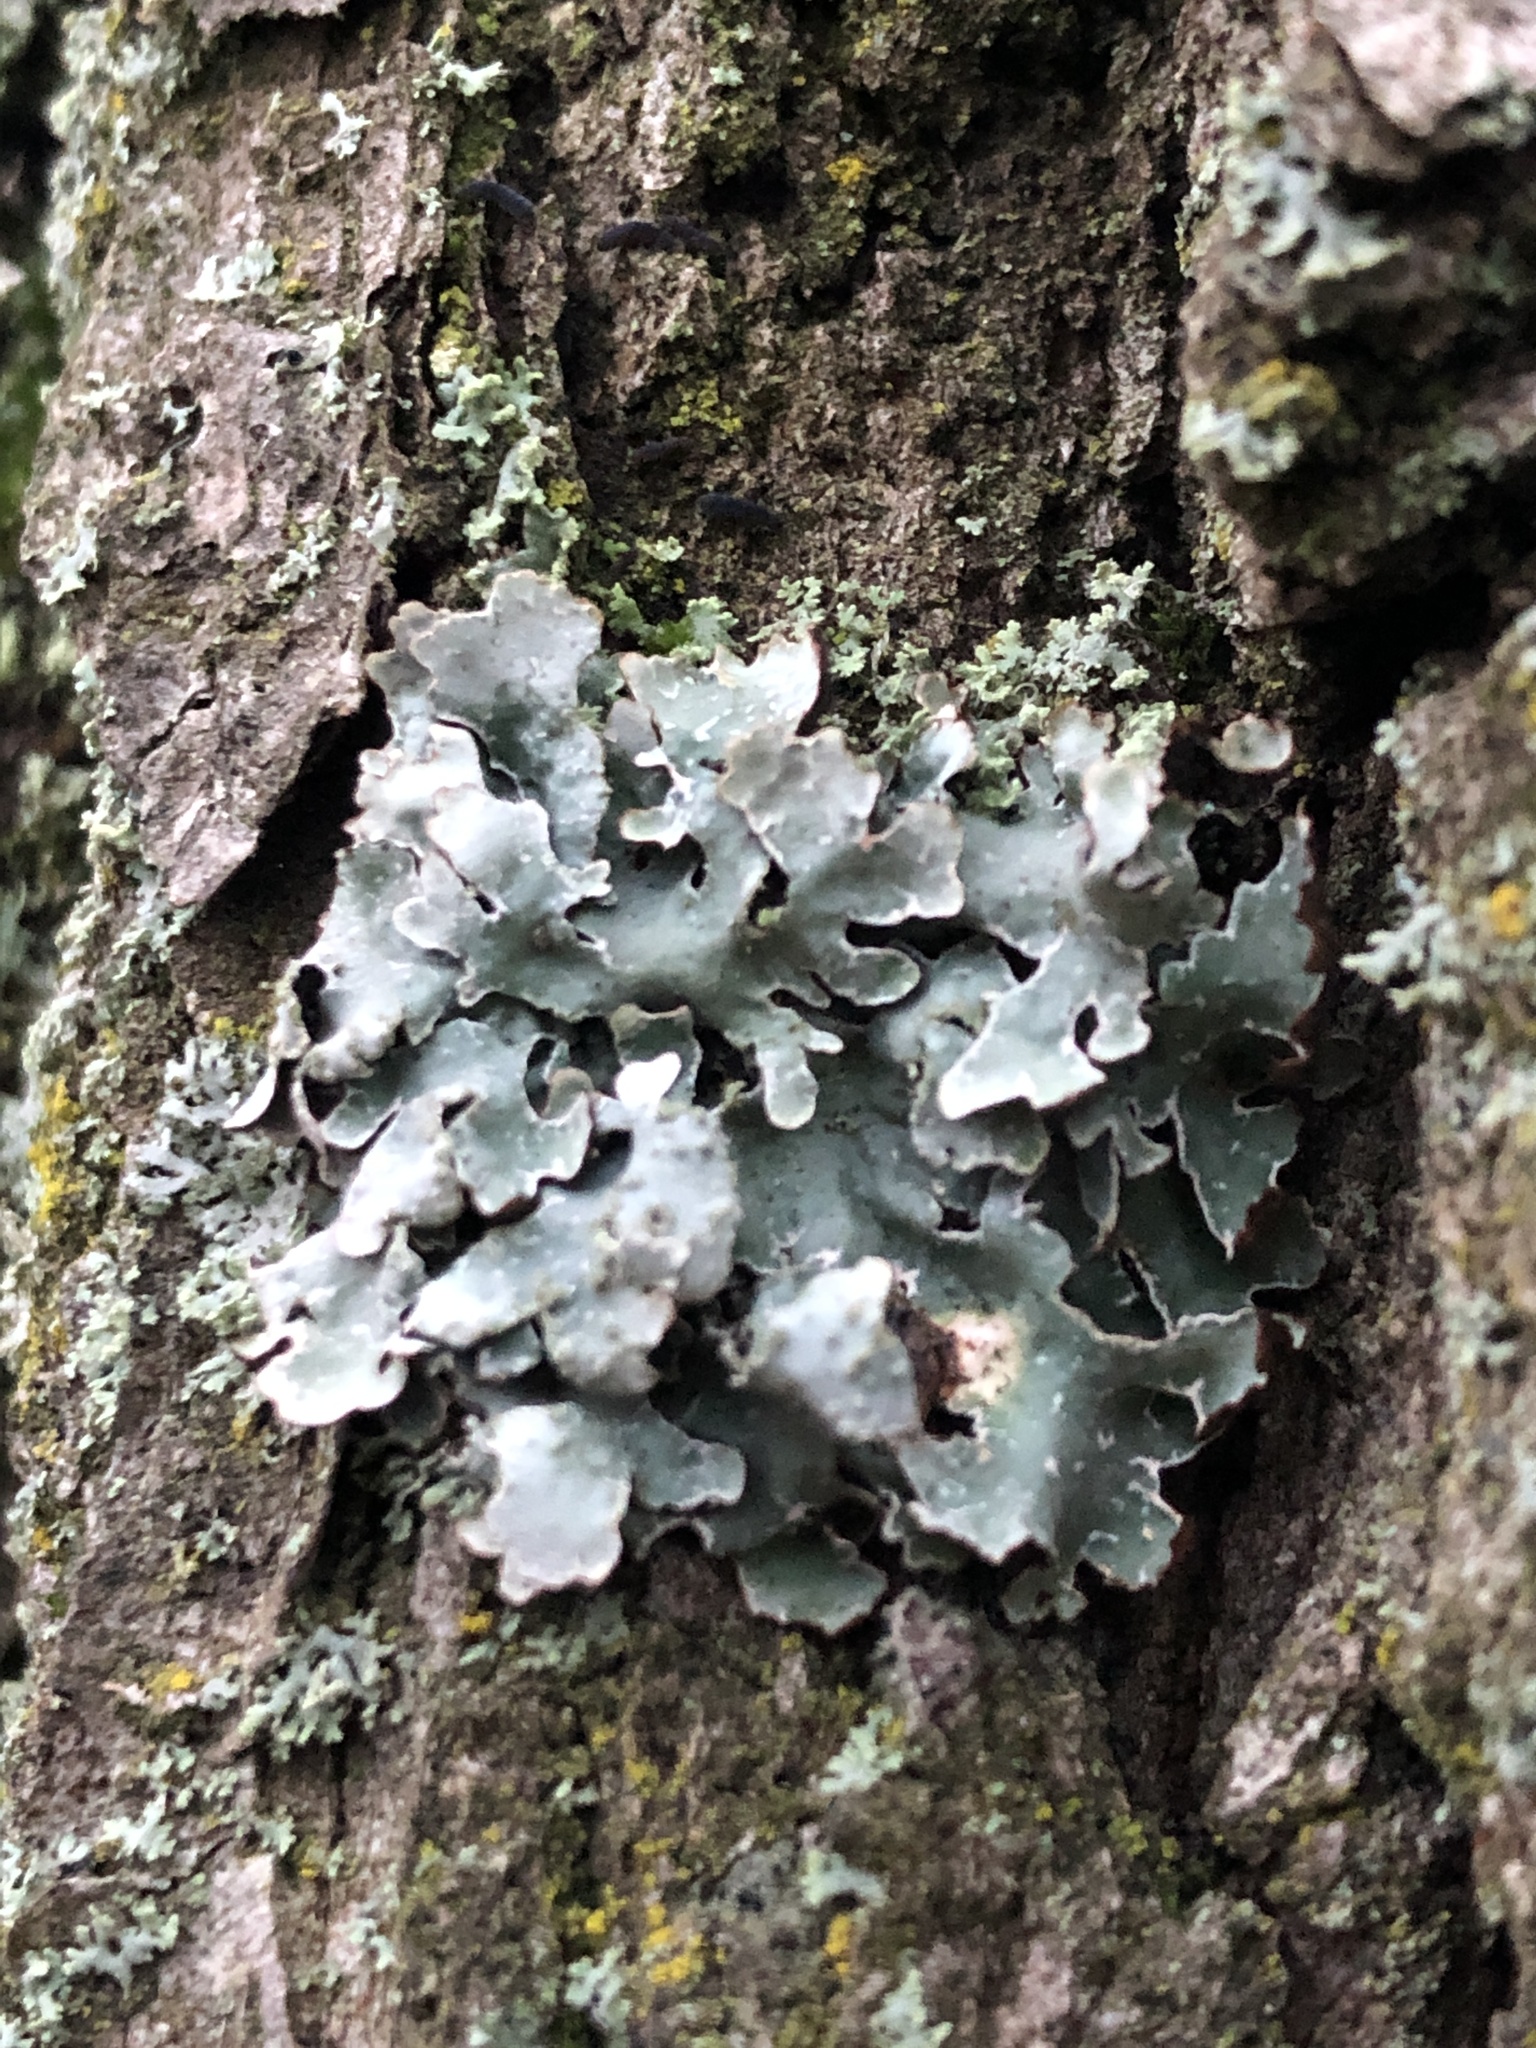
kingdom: Fungi
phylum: Ascomycota
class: Lecanoromycetes
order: Lecanorales
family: Parmeliaceae
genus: Parmelia
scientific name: Parmelia sulcata
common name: Netted shield lichen
